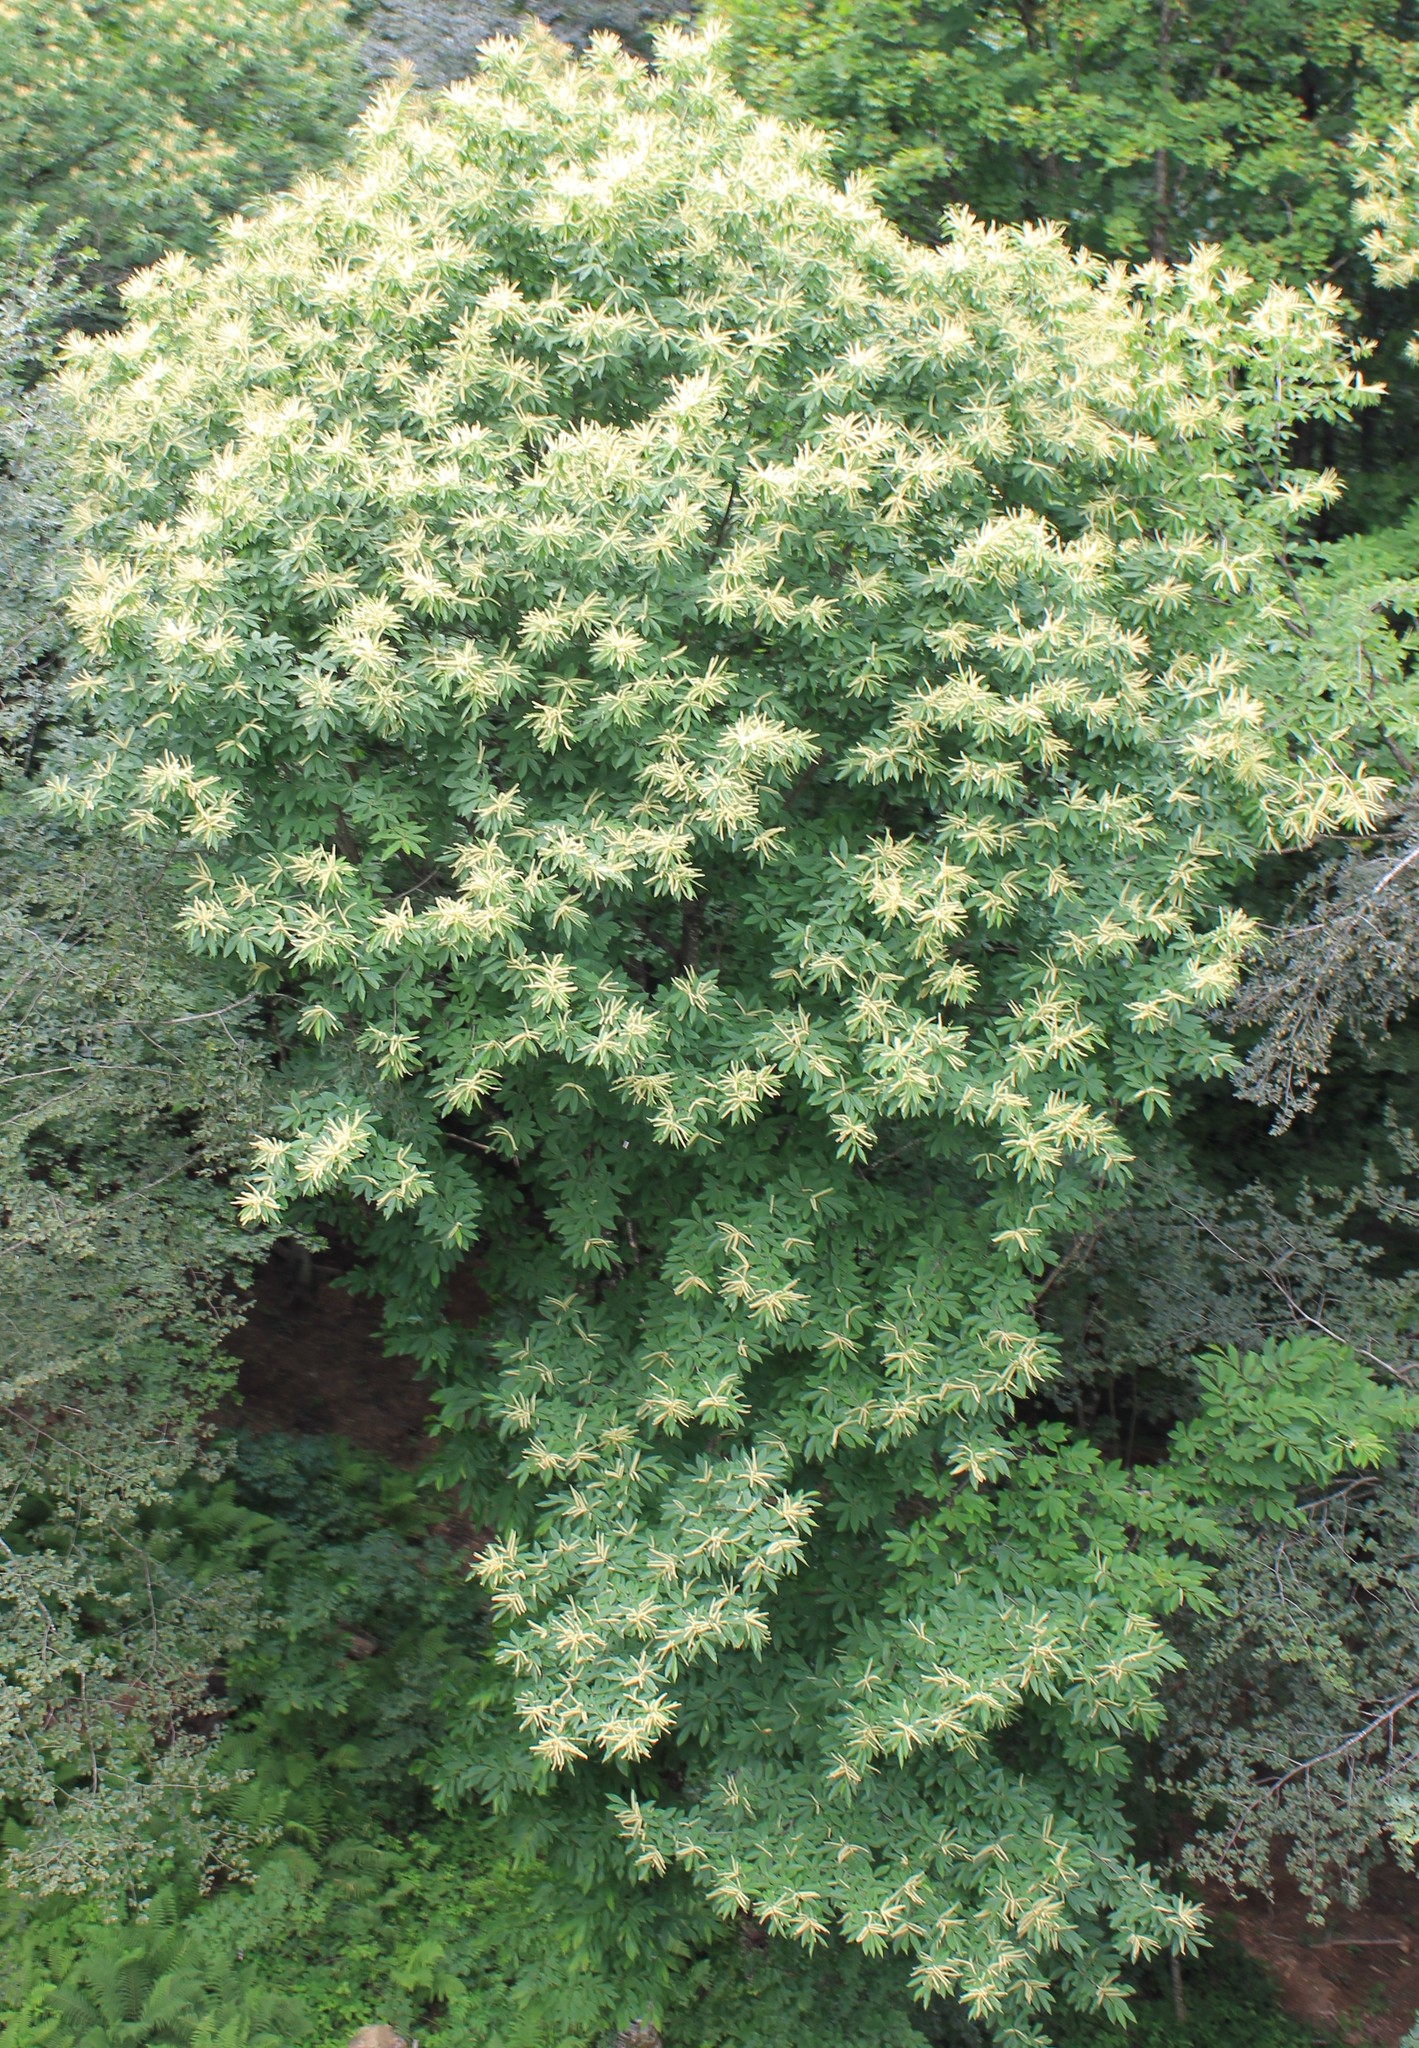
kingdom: Plantae
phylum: Tracheophyta
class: Magnoliopsida
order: Fagales
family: Fagaceae
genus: Castanea
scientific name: Castanea sativa
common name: Sweet chestnut
